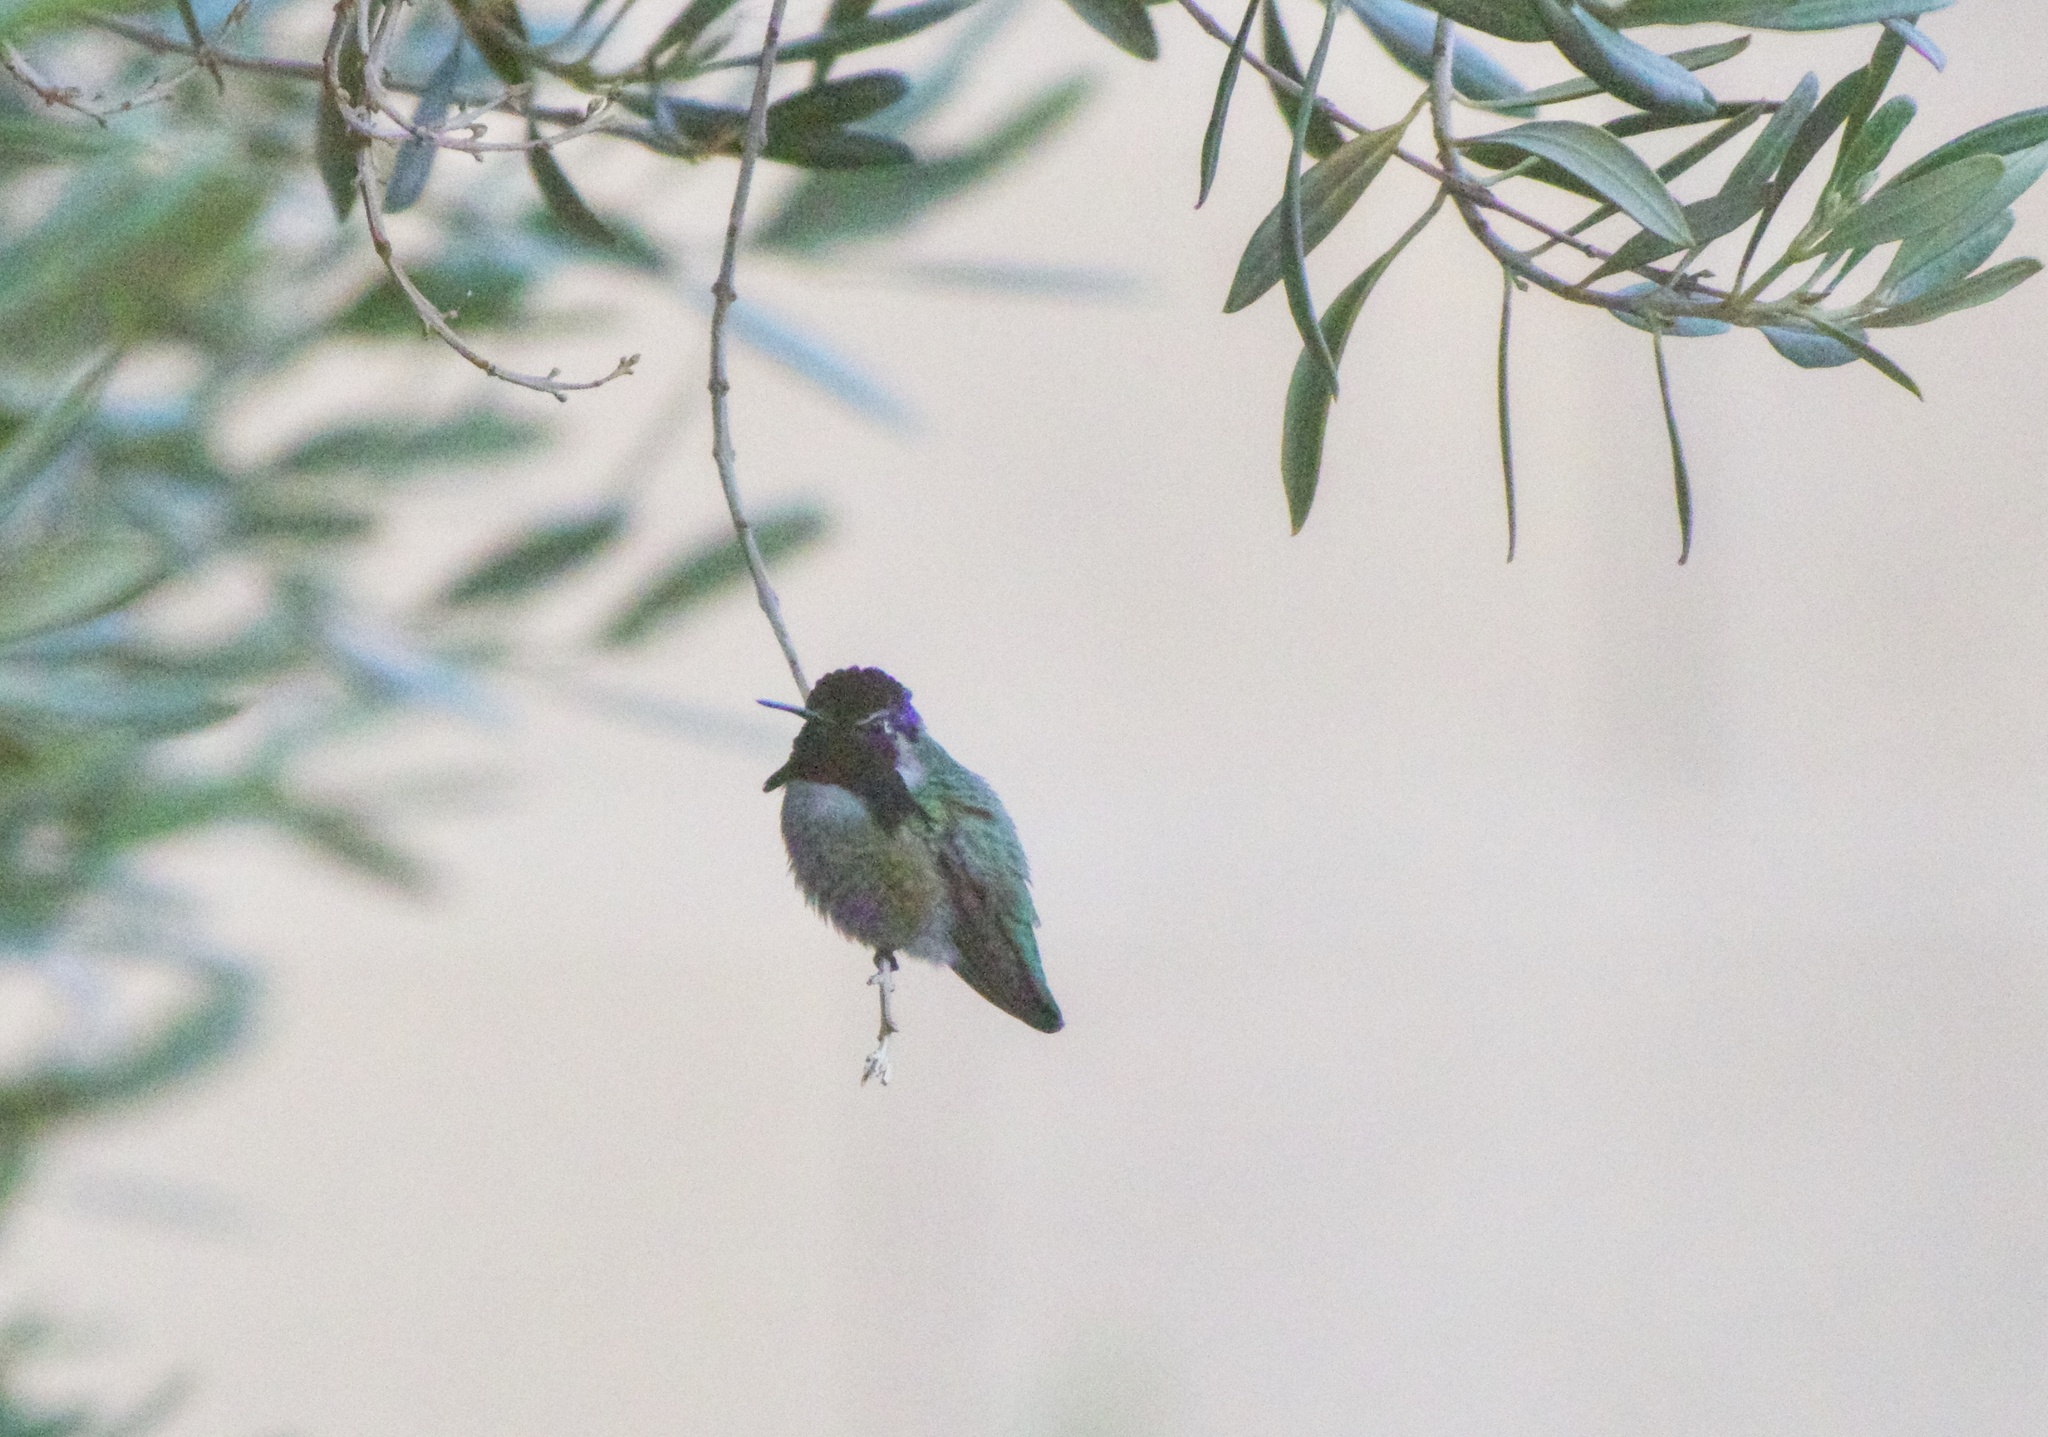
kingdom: Animalia
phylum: Chordata
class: Aves
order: Apodiformes
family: Trochilidae
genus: Calypte
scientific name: Calypte costae
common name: Costa's hummingbird
